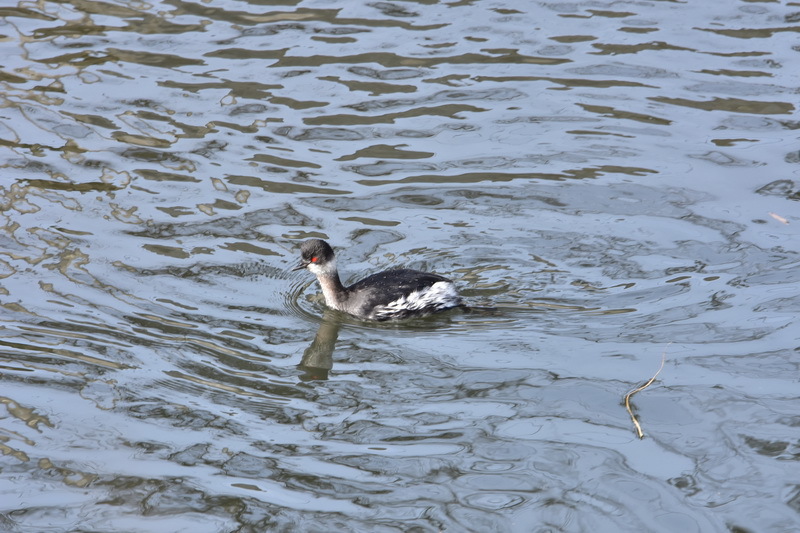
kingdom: Animalia
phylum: Chordata
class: Aves
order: Podicipediformes
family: Podicipedidae
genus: Podiceps
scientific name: Podiceps nigricollis
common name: Black-necked grebe
